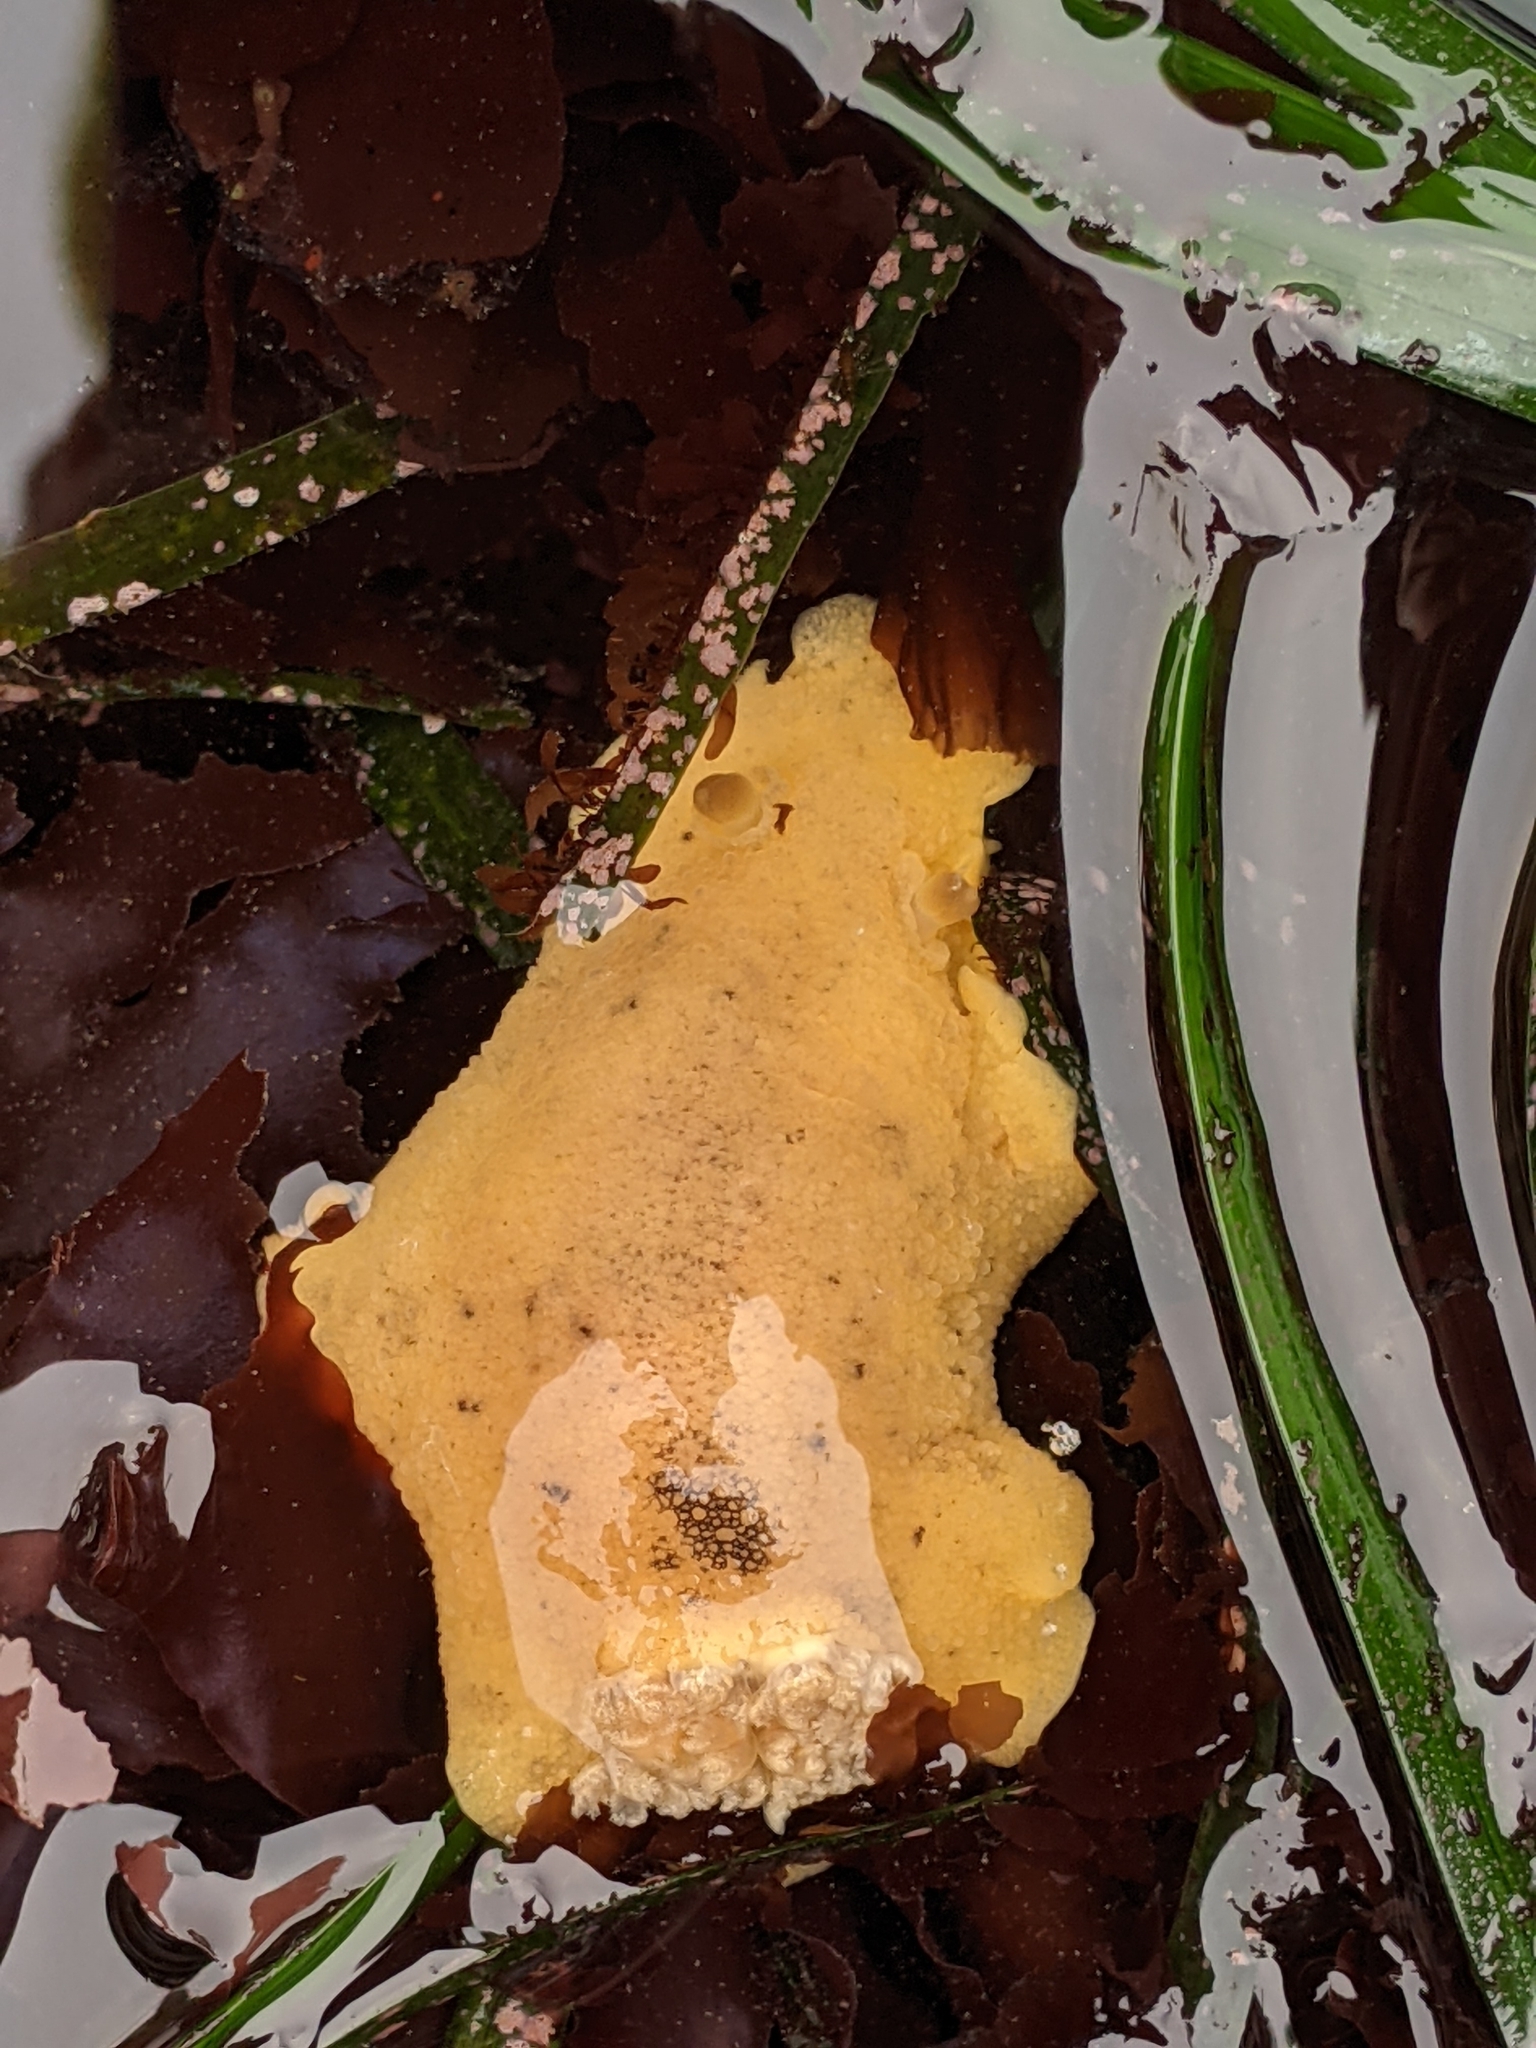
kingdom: Animalia
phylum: Mollusca
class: Gastropoda
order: Nudibranchia
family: Discodorididae
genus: Geitodoris
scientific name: Geitodoris heathi
